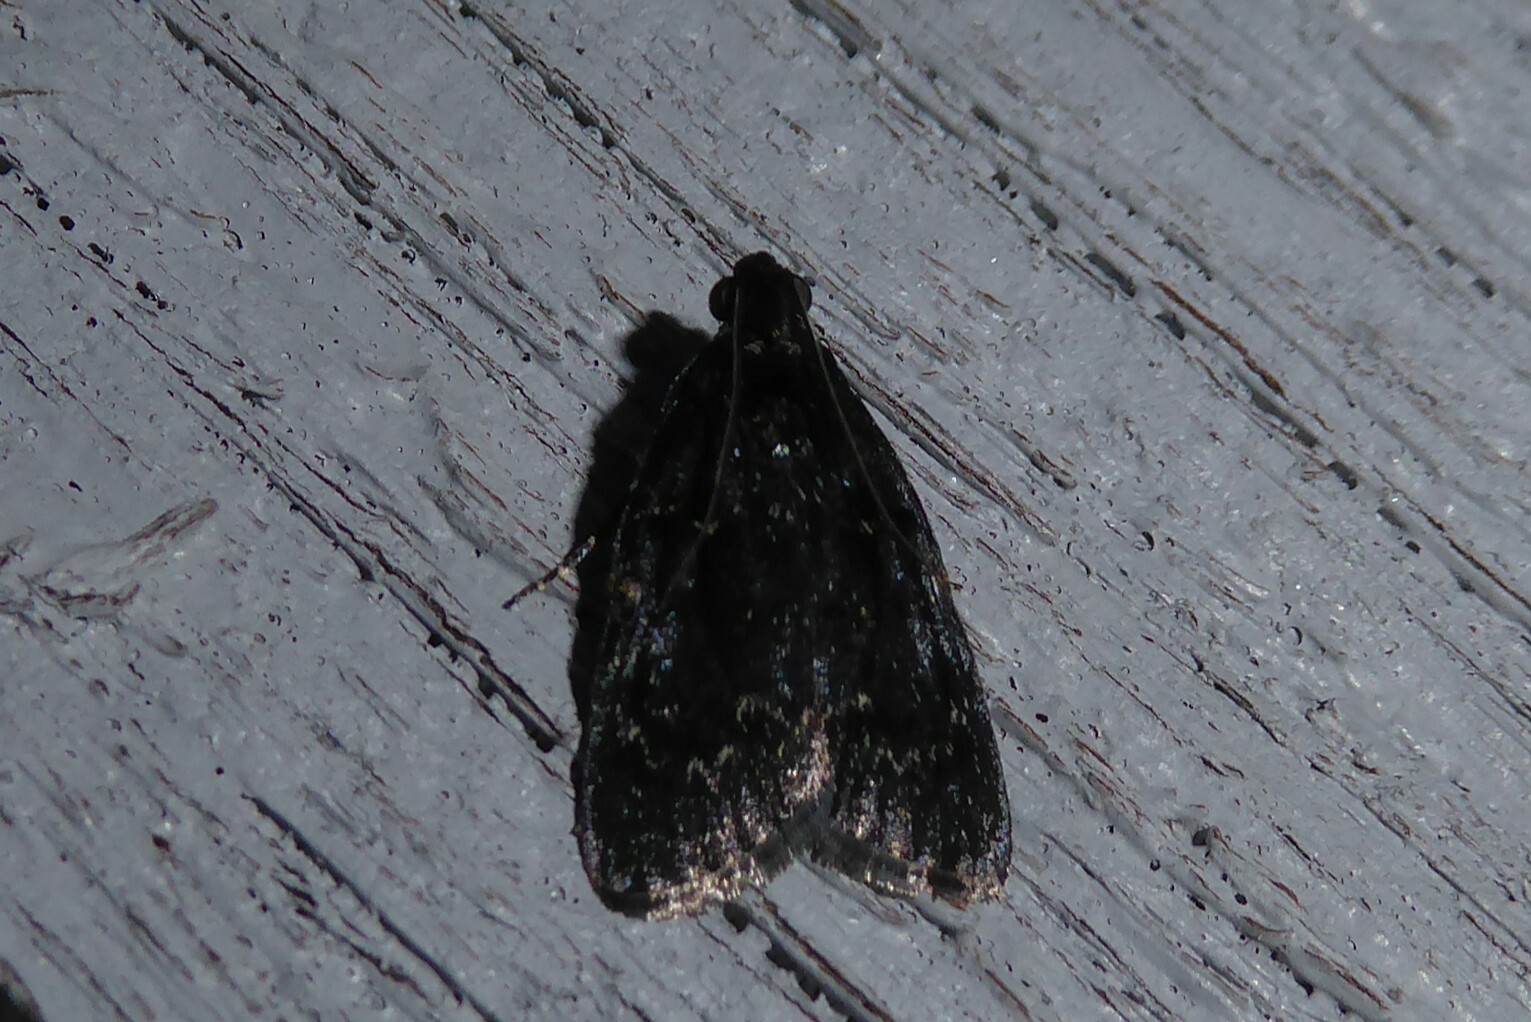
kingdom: Animalia
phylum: Arthropoda
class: Insecta
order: Lepidoptera
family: Pyralidae
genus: Stericta
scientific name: Stericta carbonalis
